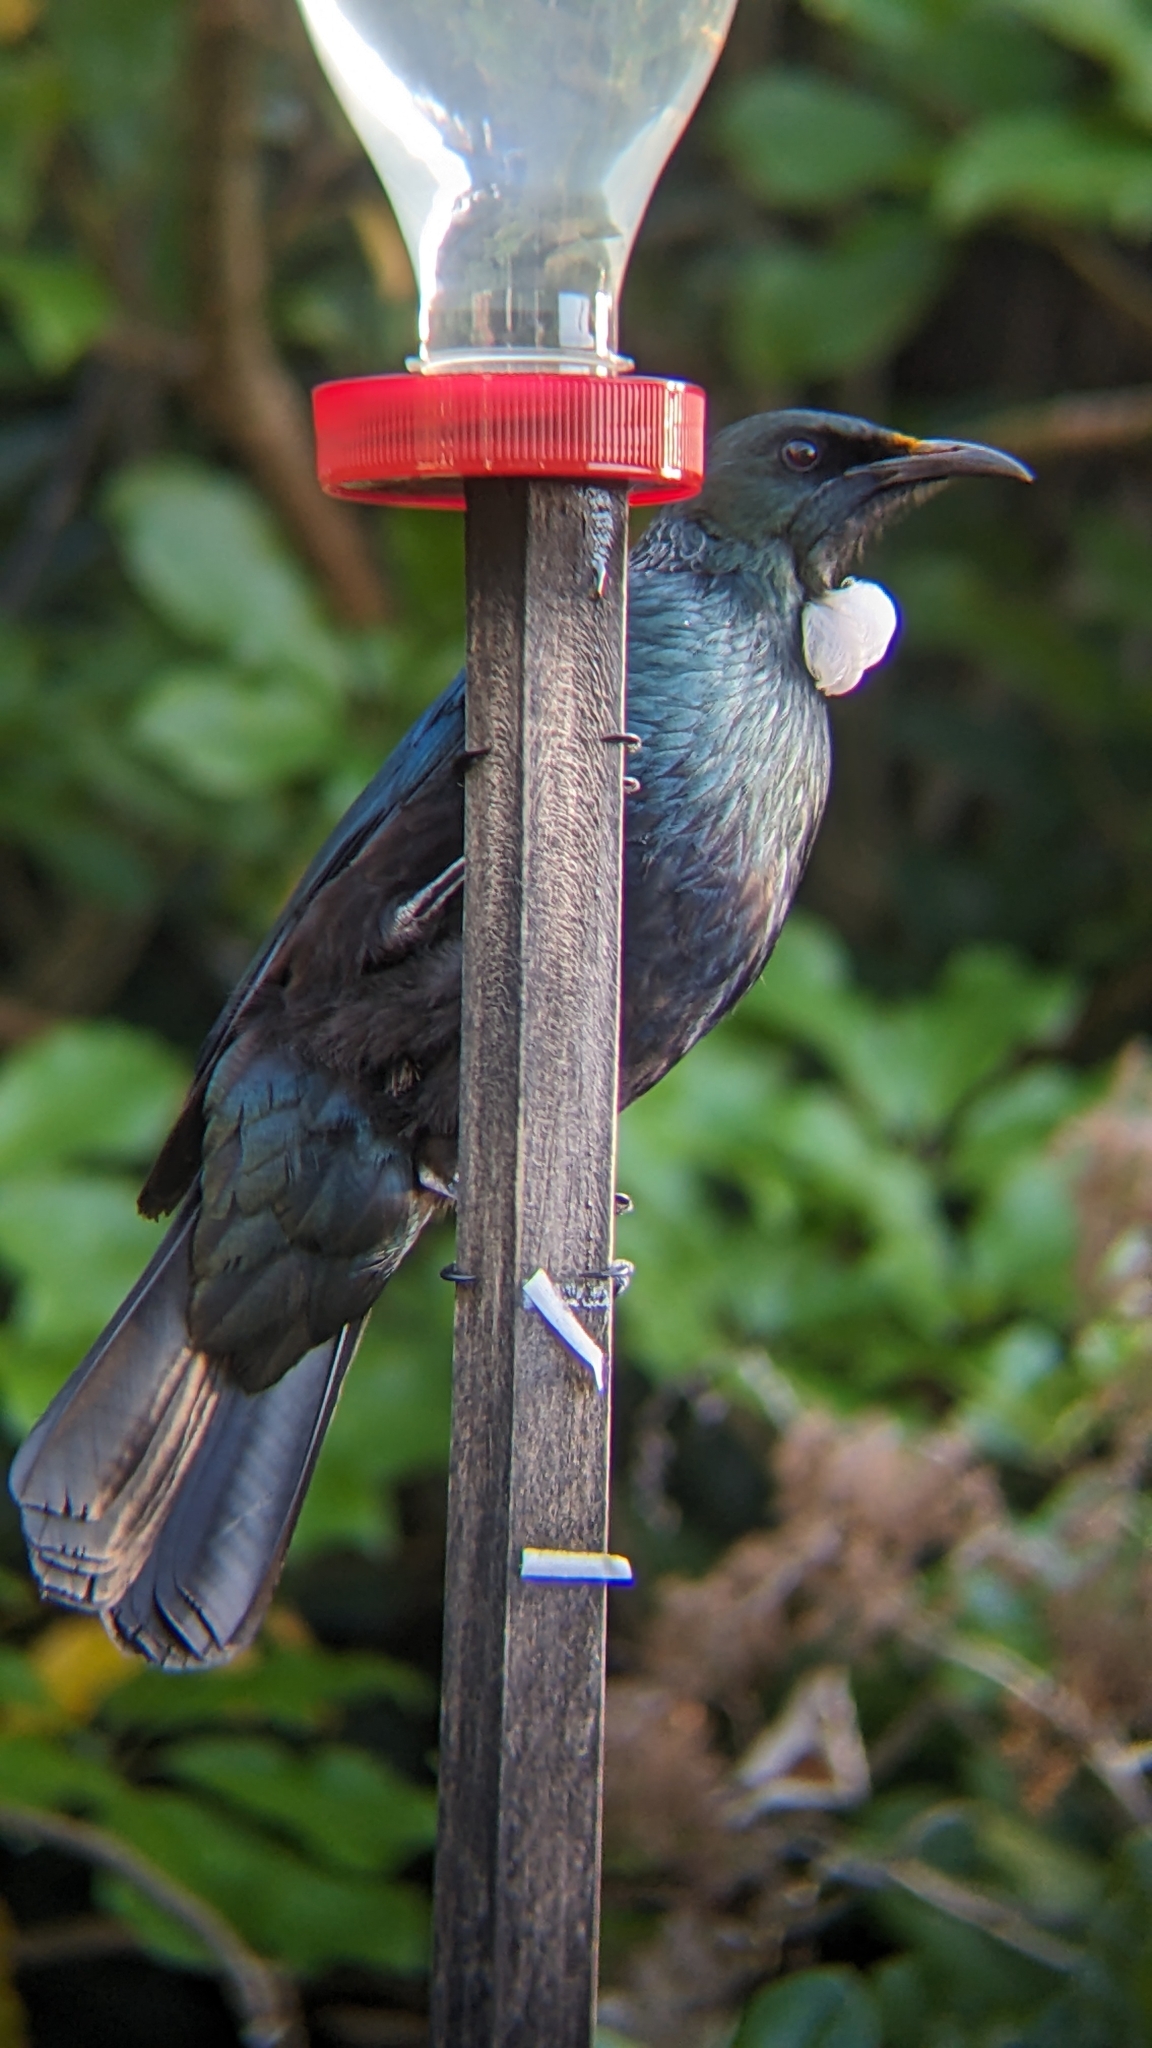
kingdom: Animalia
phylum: Chordata
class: Aves
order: Passeriformes
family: Meliphagidae
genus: Prosthemadera
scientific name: Prosthemadera novaeseelandiae
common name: Tui
